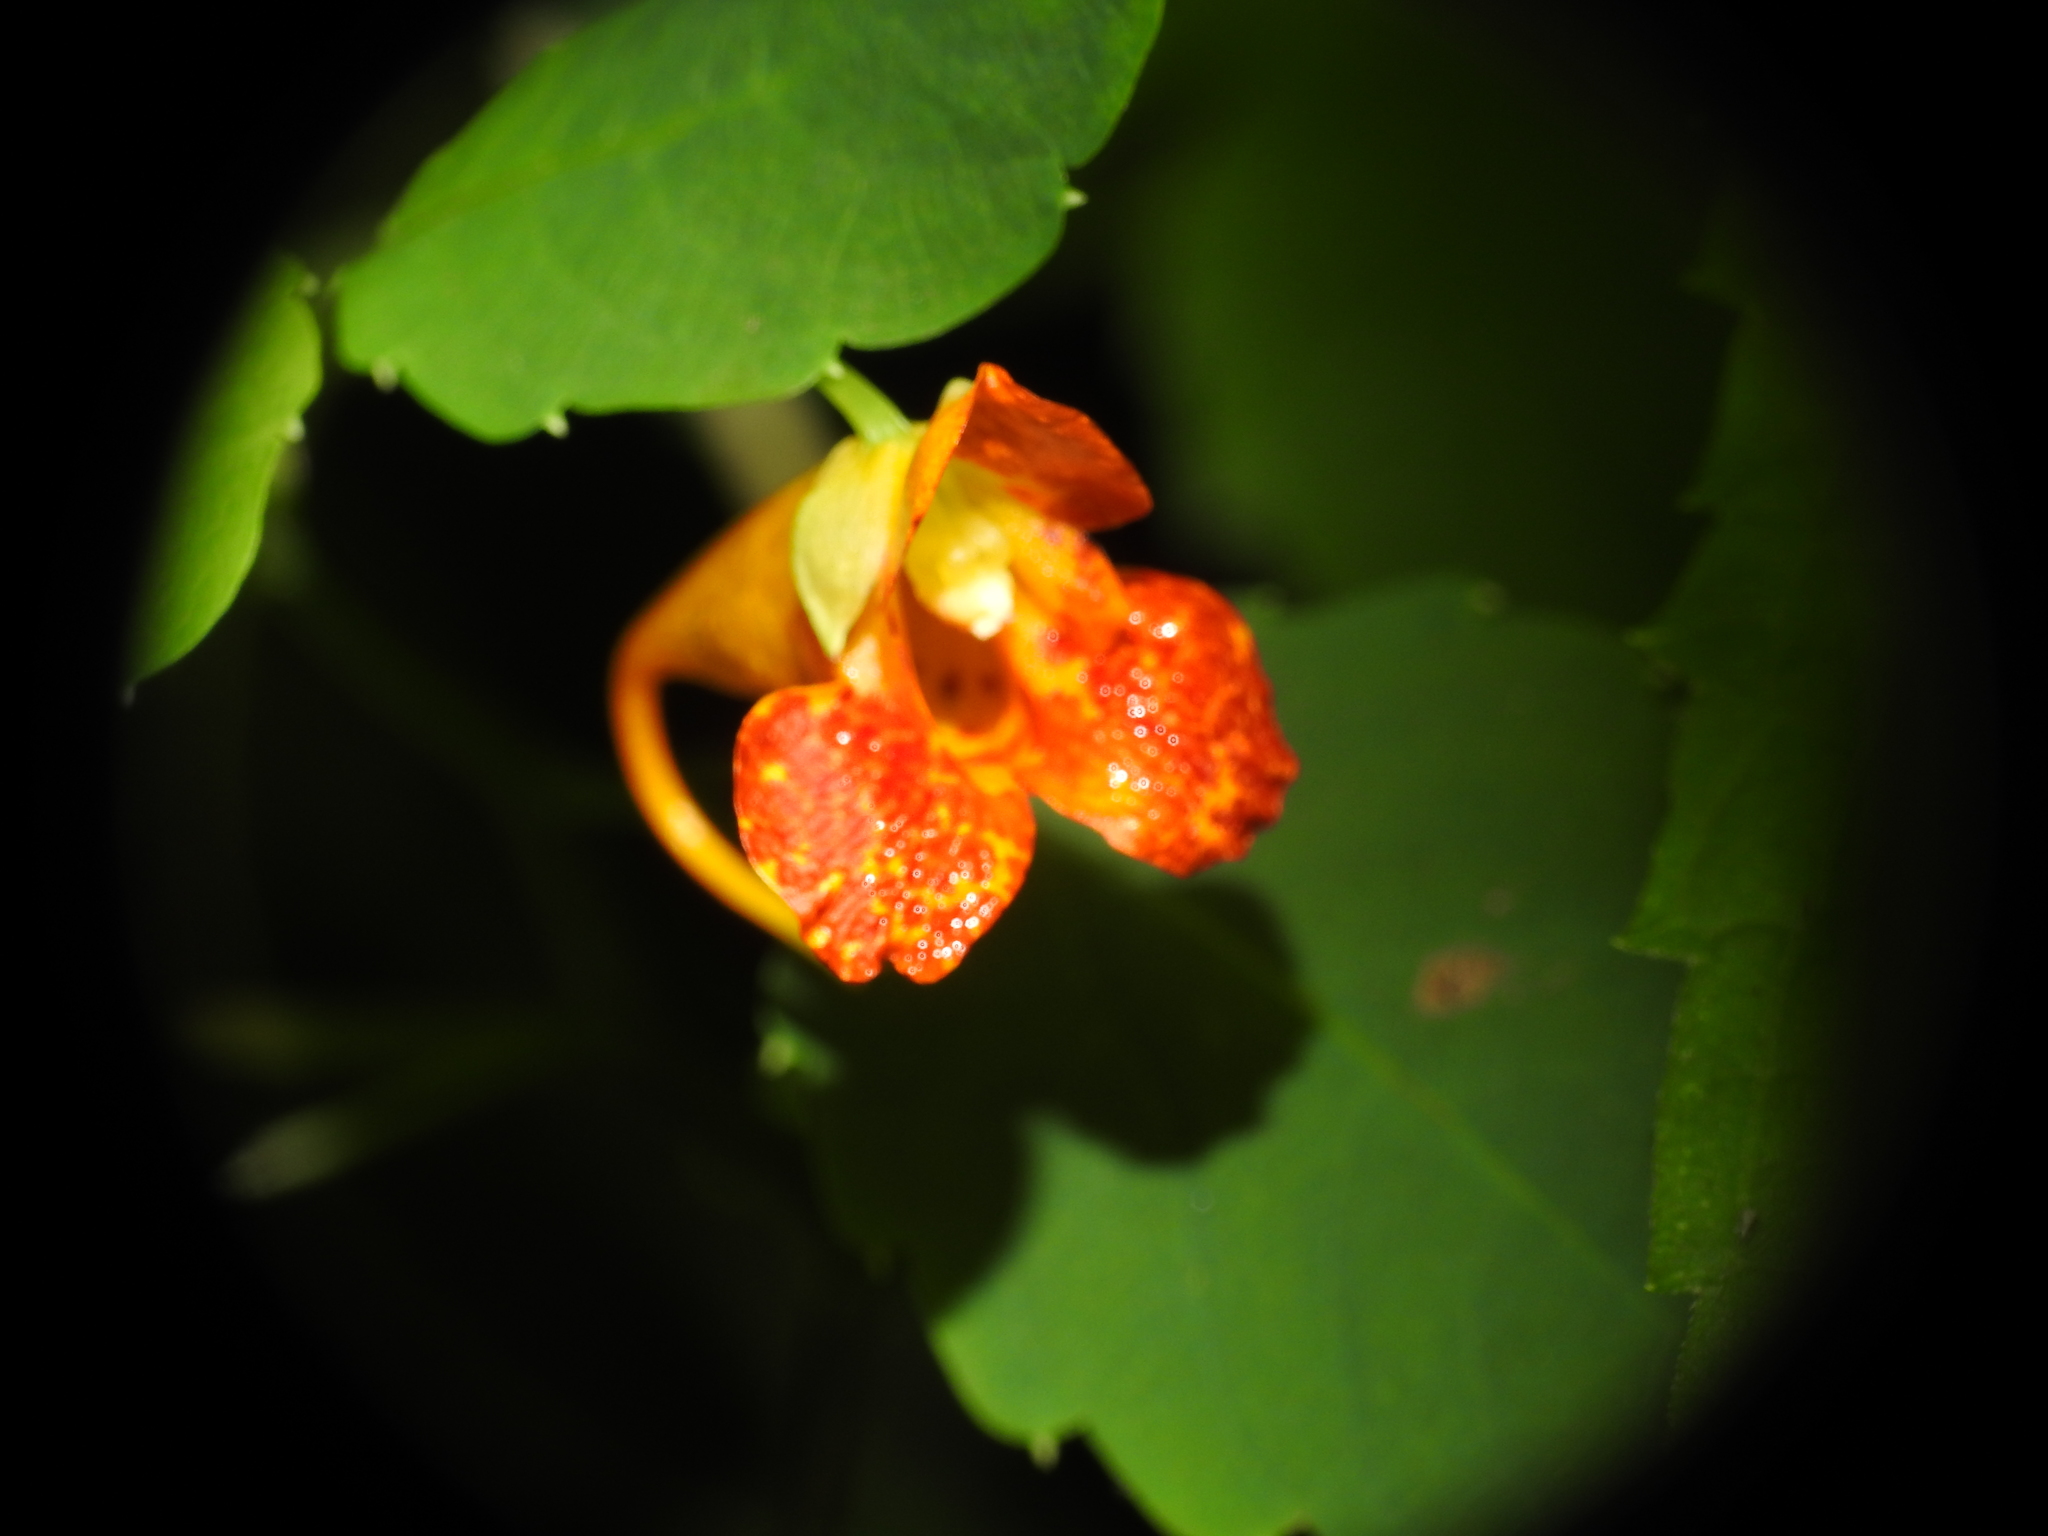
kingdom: Plantae
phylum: Tracheophyta
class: Magnoliopsida
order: Ericales
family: Balsaminaceae
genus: Impatiens
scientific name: Impatiens capensis
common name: Orange balsam
